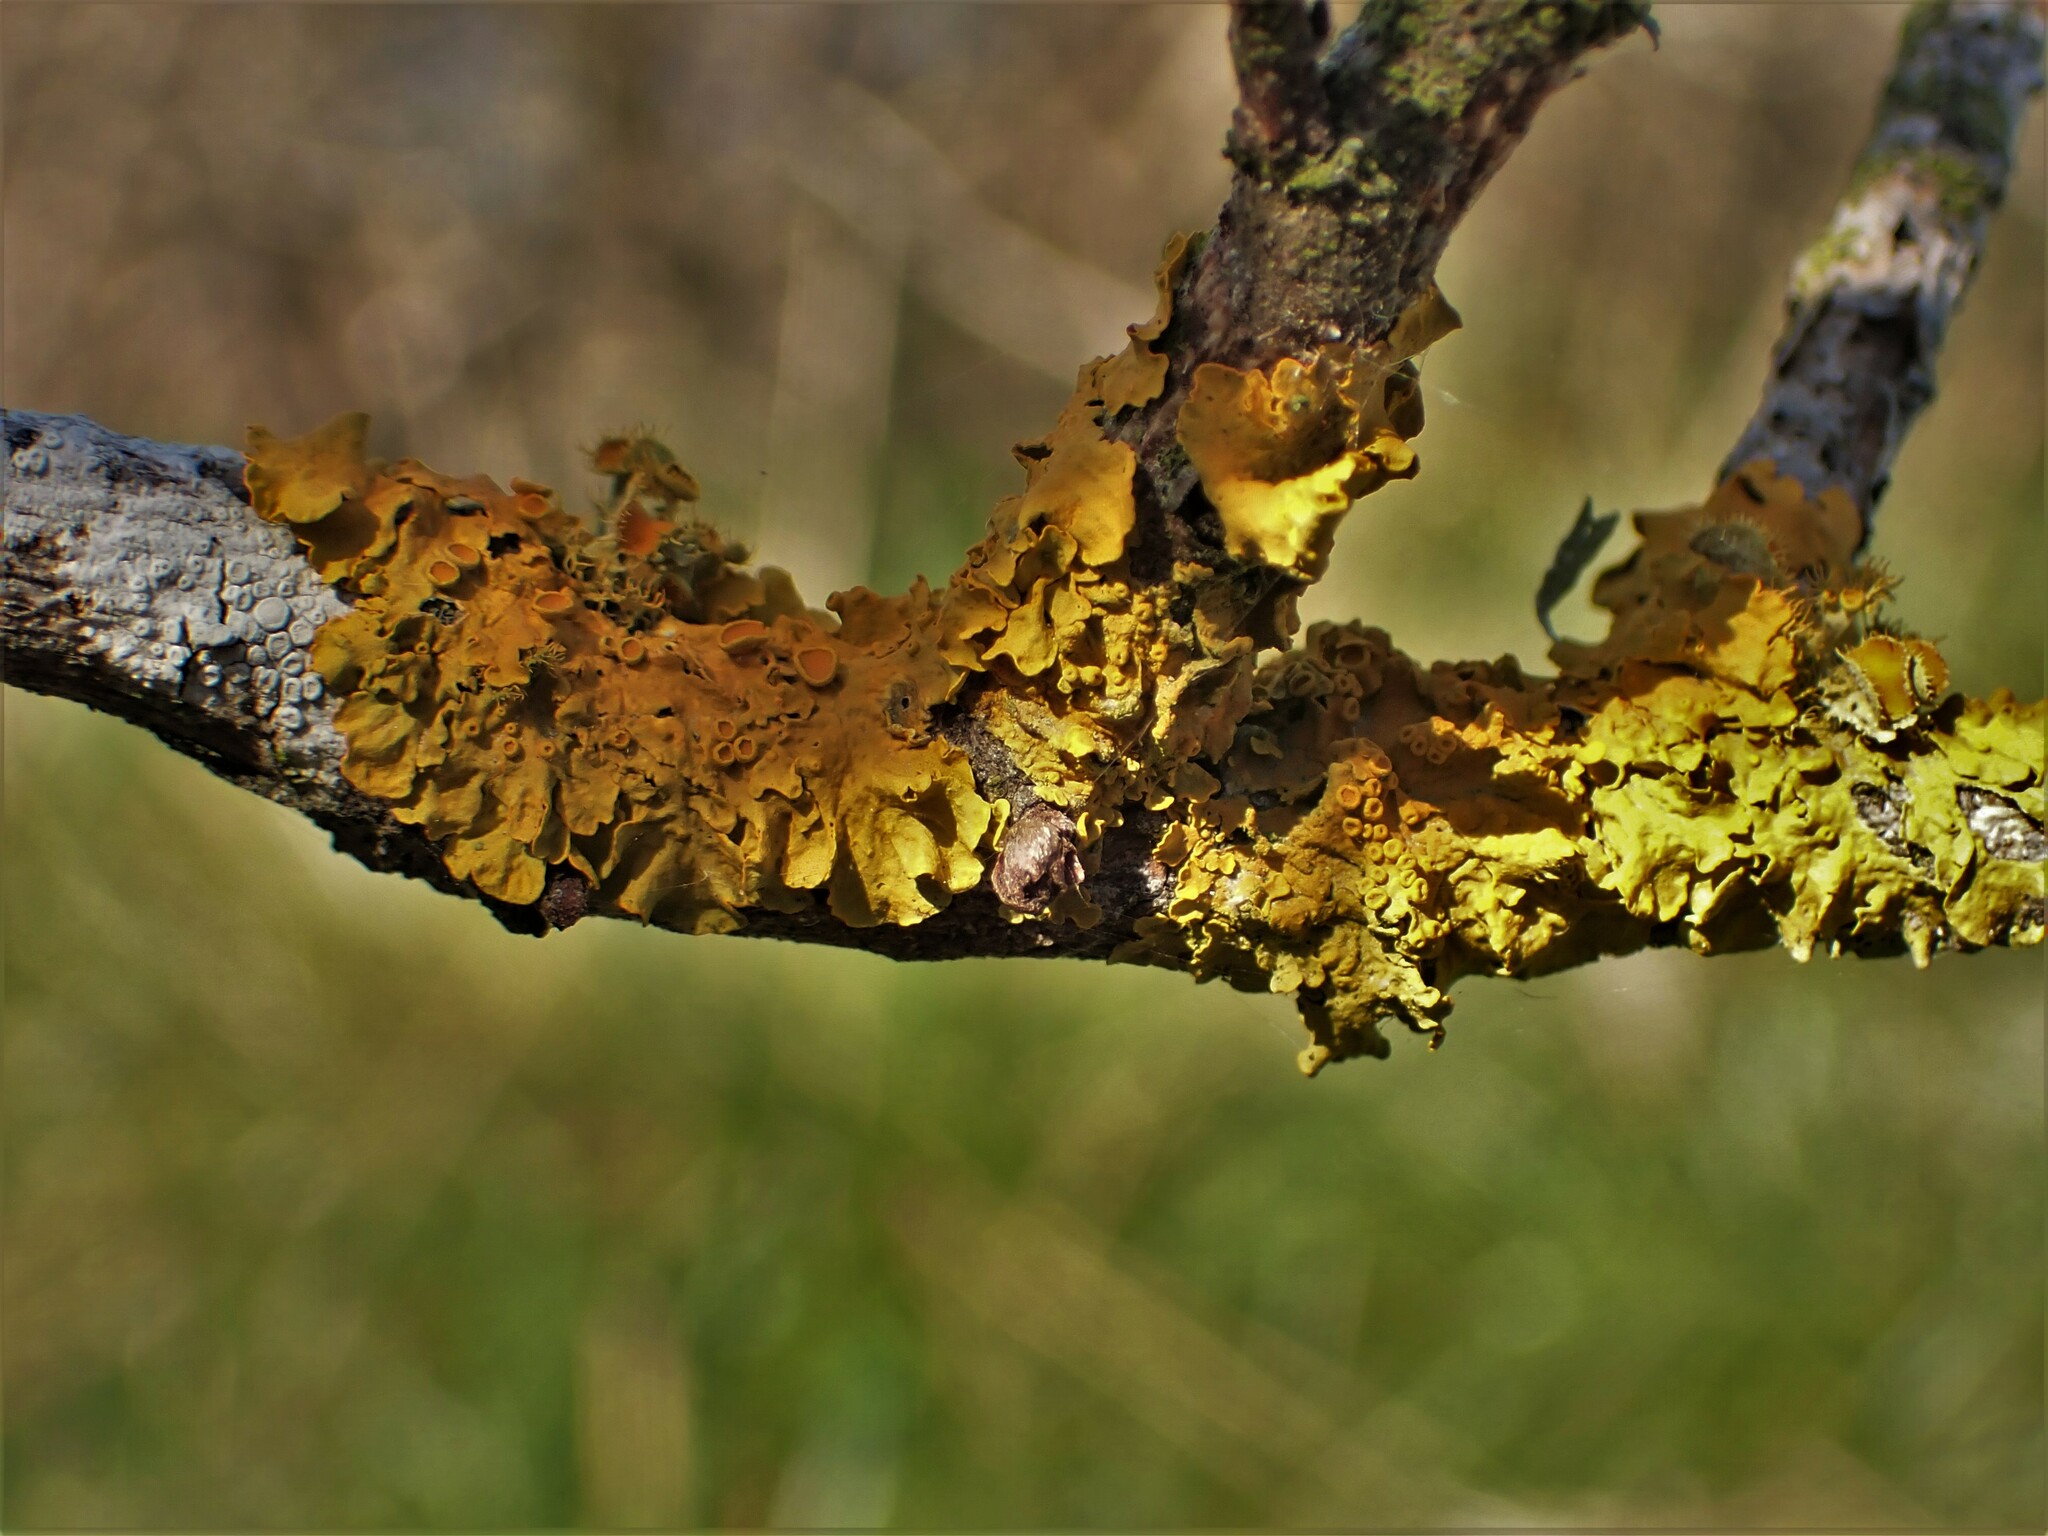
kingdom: Fungi
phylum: Ascomycota
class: Lecanoromycetes
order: Teloschistales
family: Teloschistaceae
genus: Xanthoria
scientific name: Xanthoria parietina
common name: Common orange lichen
